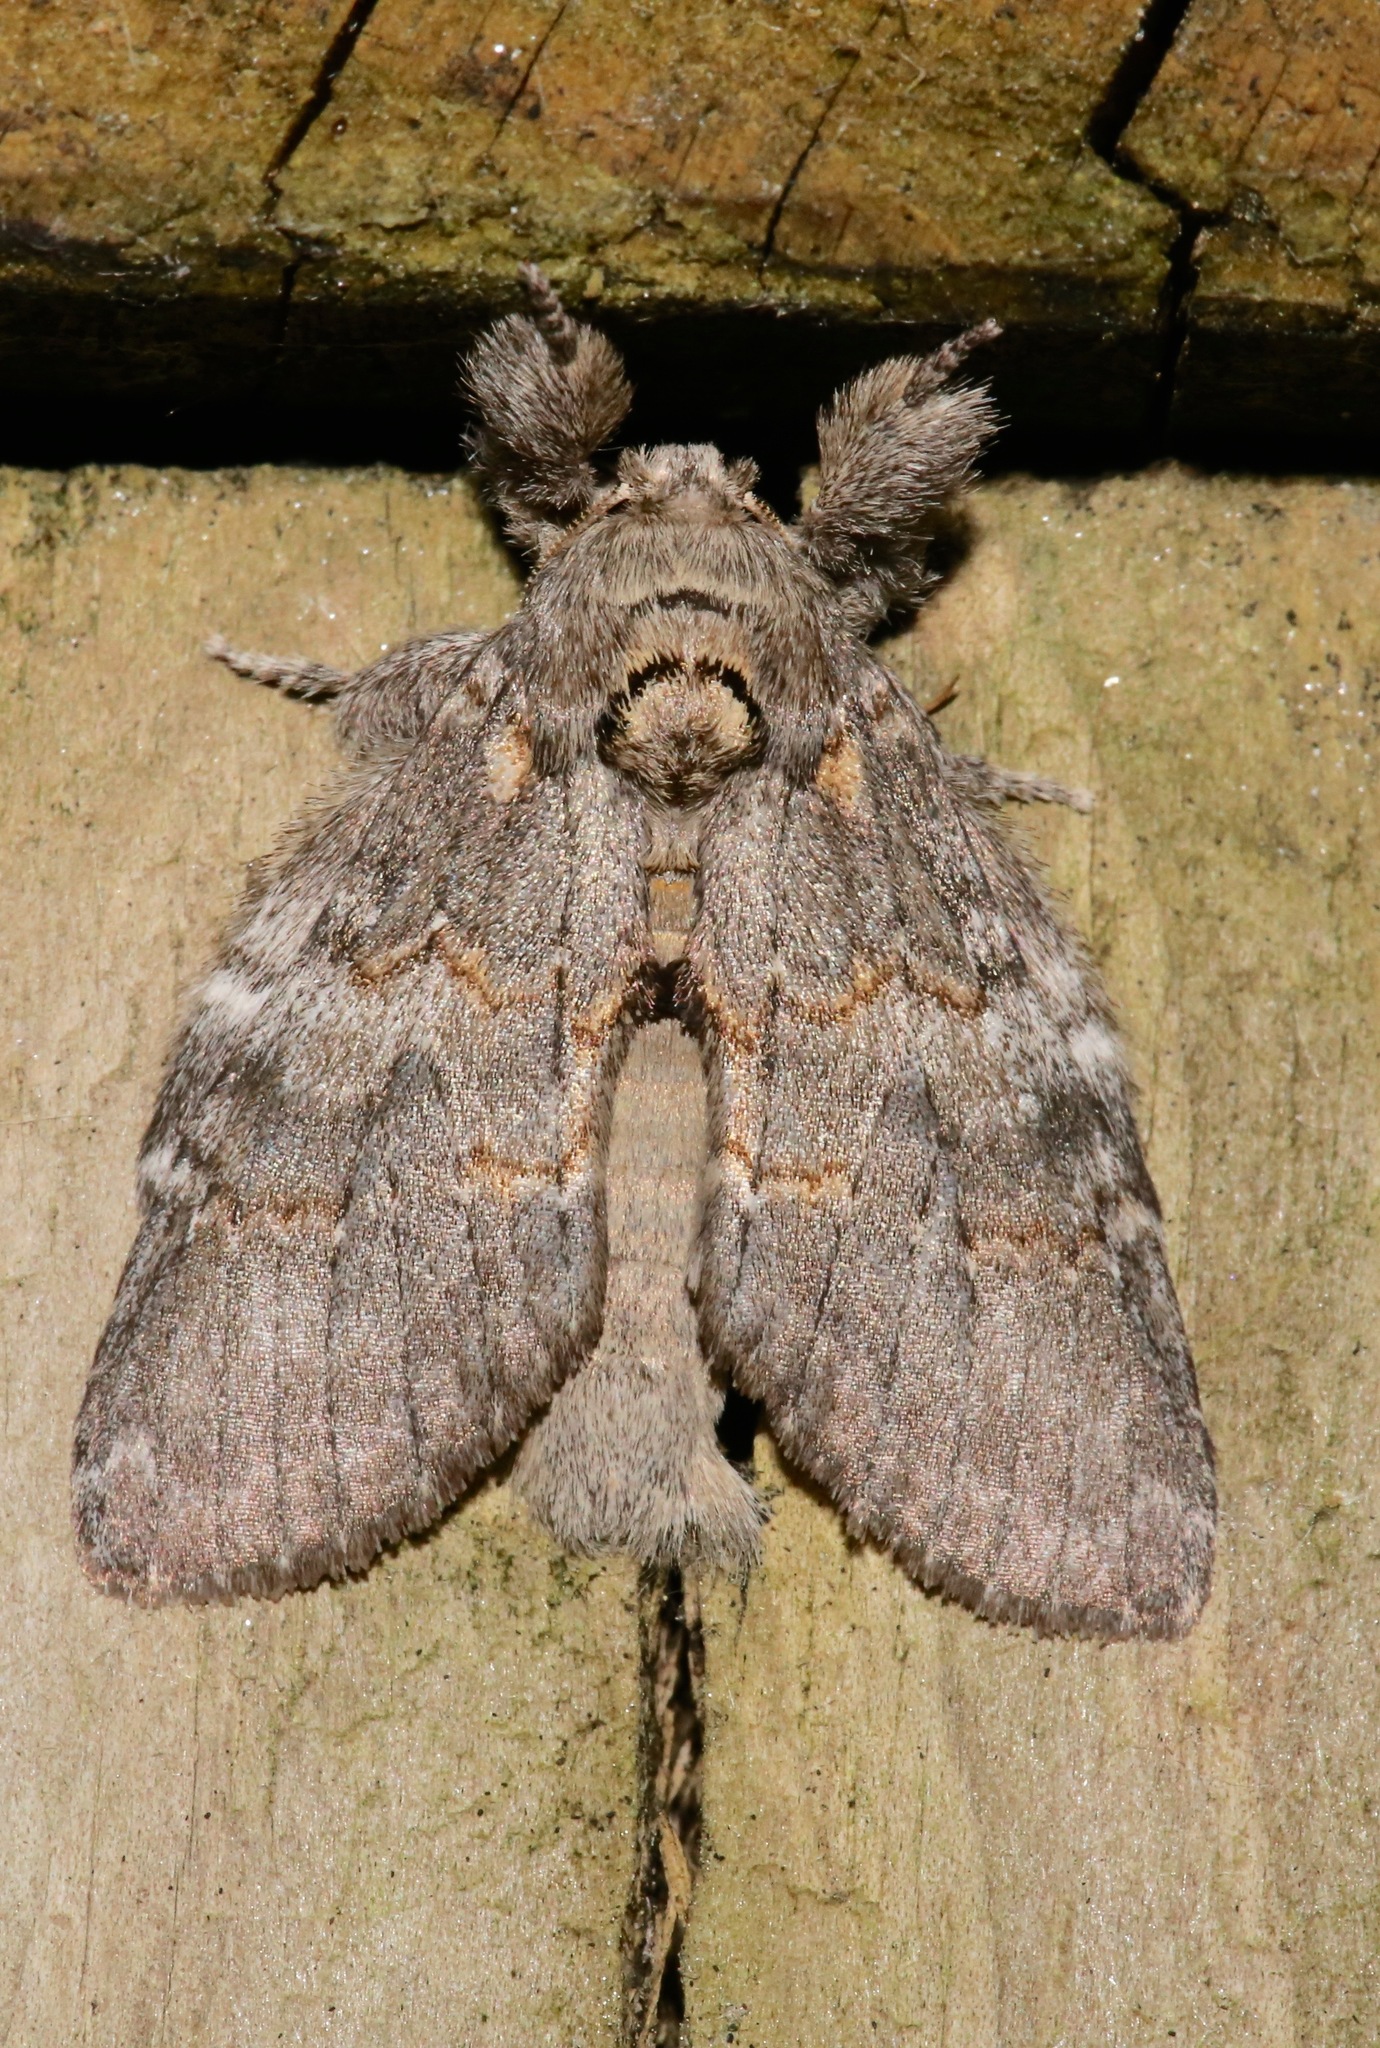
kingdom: Animalia
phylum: Arthropoda
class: Insecta
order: Lepidoptera
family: Notodontidae
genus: Peridea
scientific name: Peridea angulosa
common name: Angulose prominent
